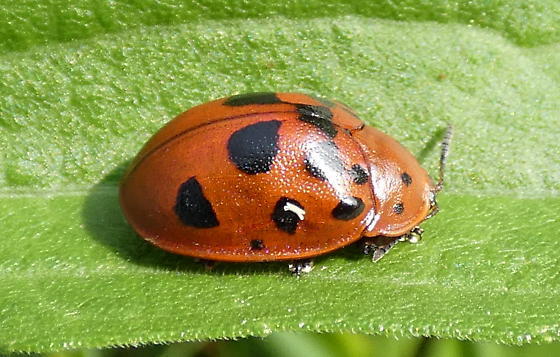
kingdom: Animalia
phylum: Arthropoda
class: Insecta
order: Coleoptera
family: Chrysomelidae
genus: Chelymorpha
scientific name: Chelymorpha cassidea
